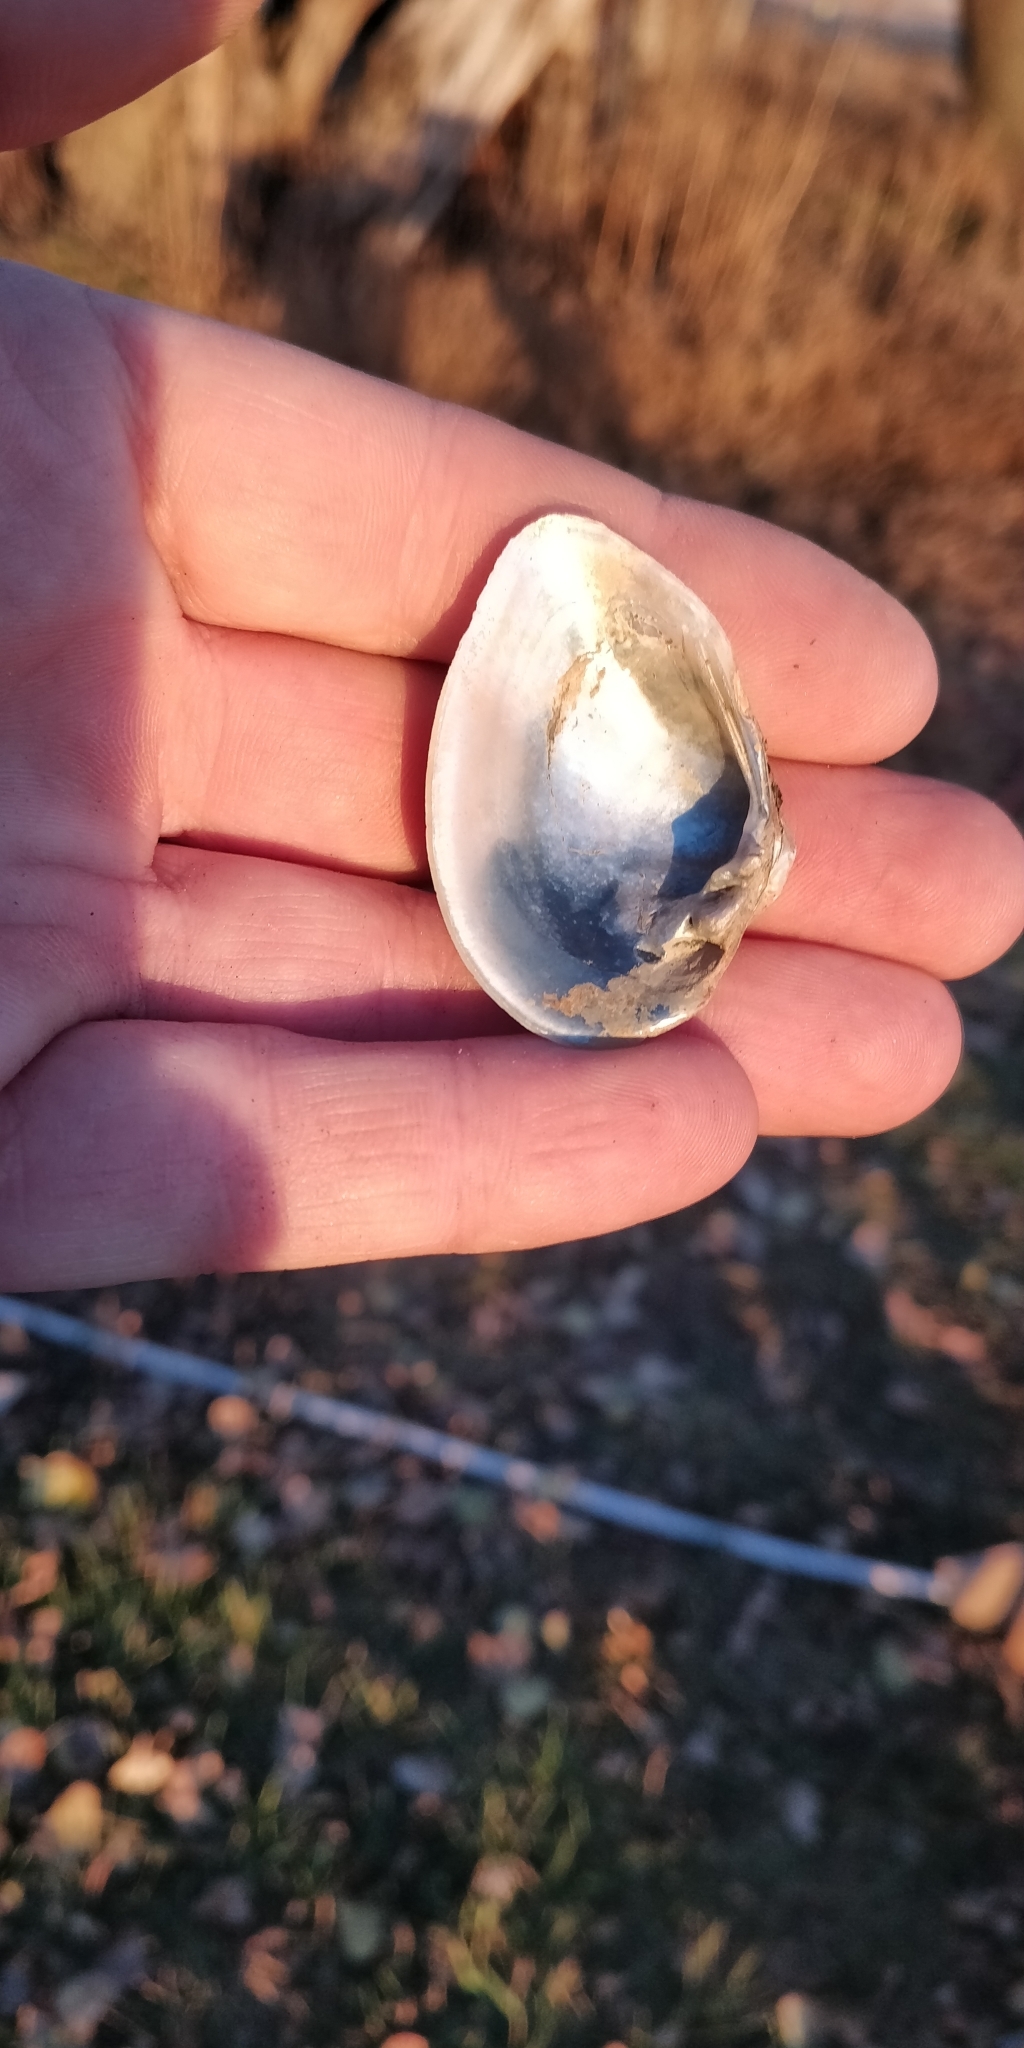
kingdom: Animalia
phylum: Mollusca
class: Bivalvia
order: Unionida
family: Unionidae
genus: Truncilla
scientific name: Truncilla truncata
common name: Deertoe
